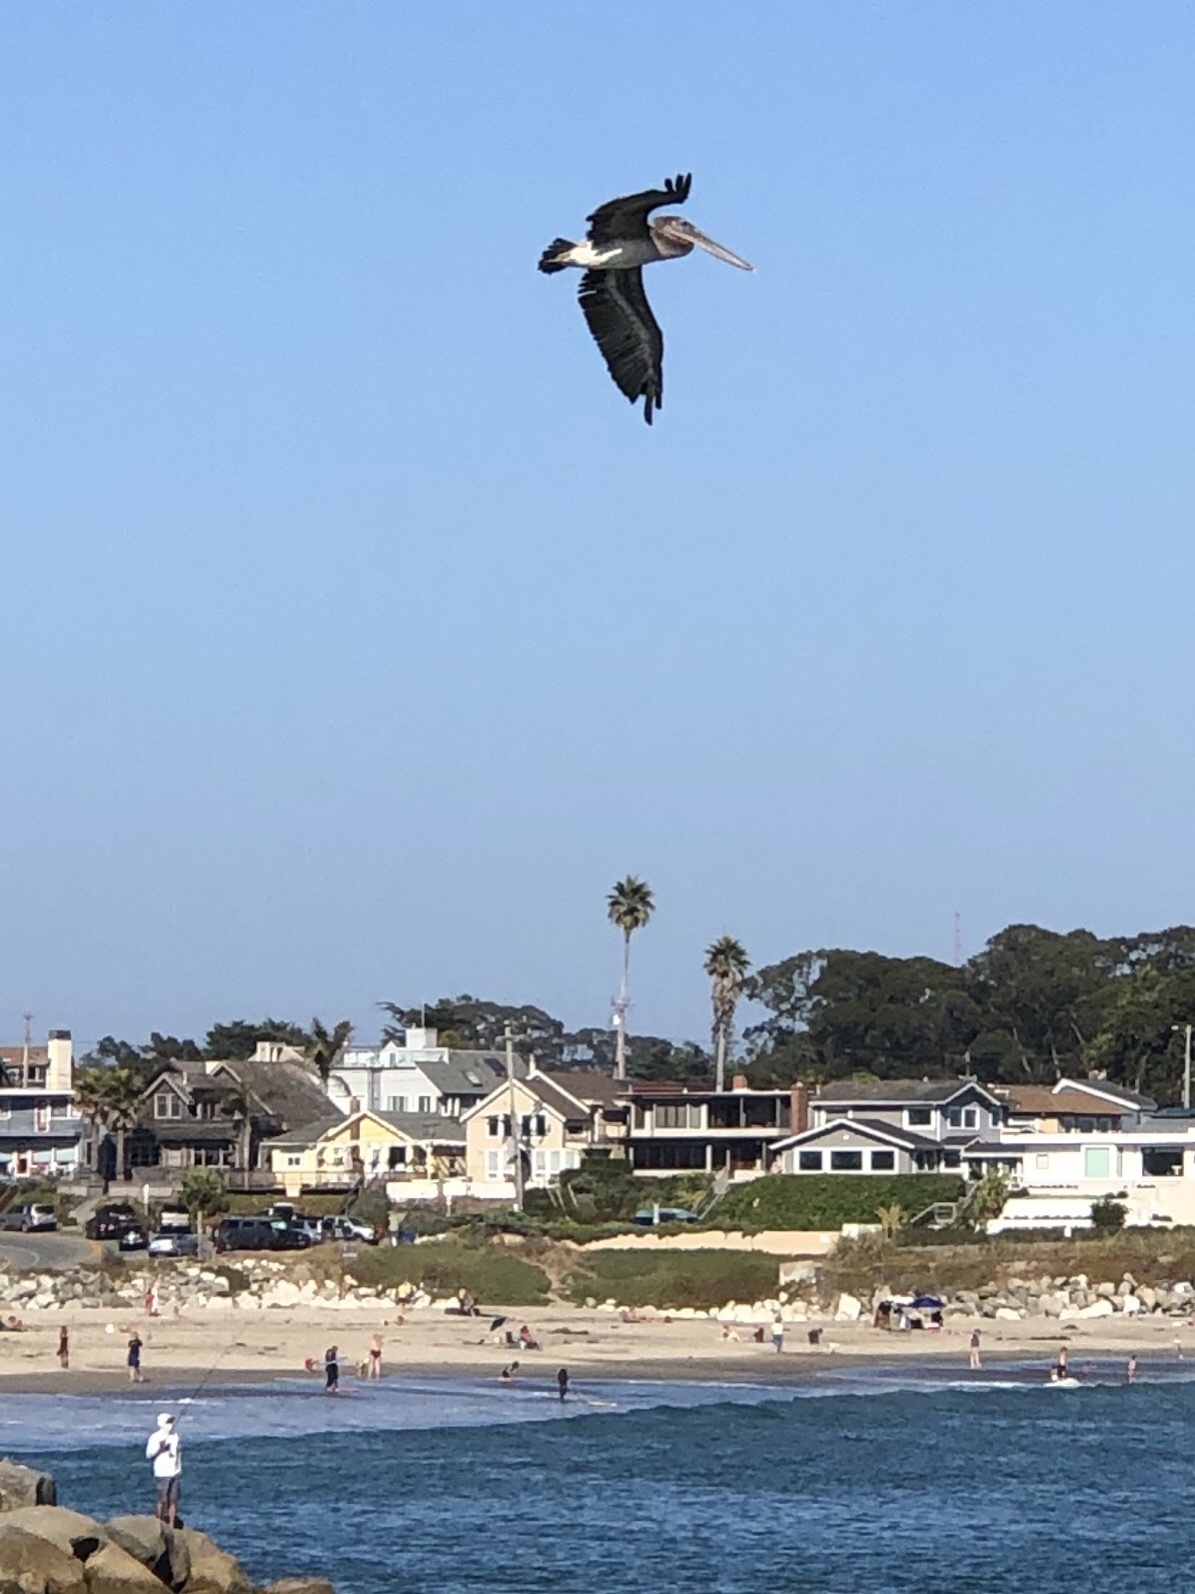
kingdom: Animalia
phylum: Chordata
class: Aves
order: Pelecaniformes
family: Pelecanidae
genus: Pelecanus
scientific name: Pelecanus occidentalis
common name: Brown pelican
